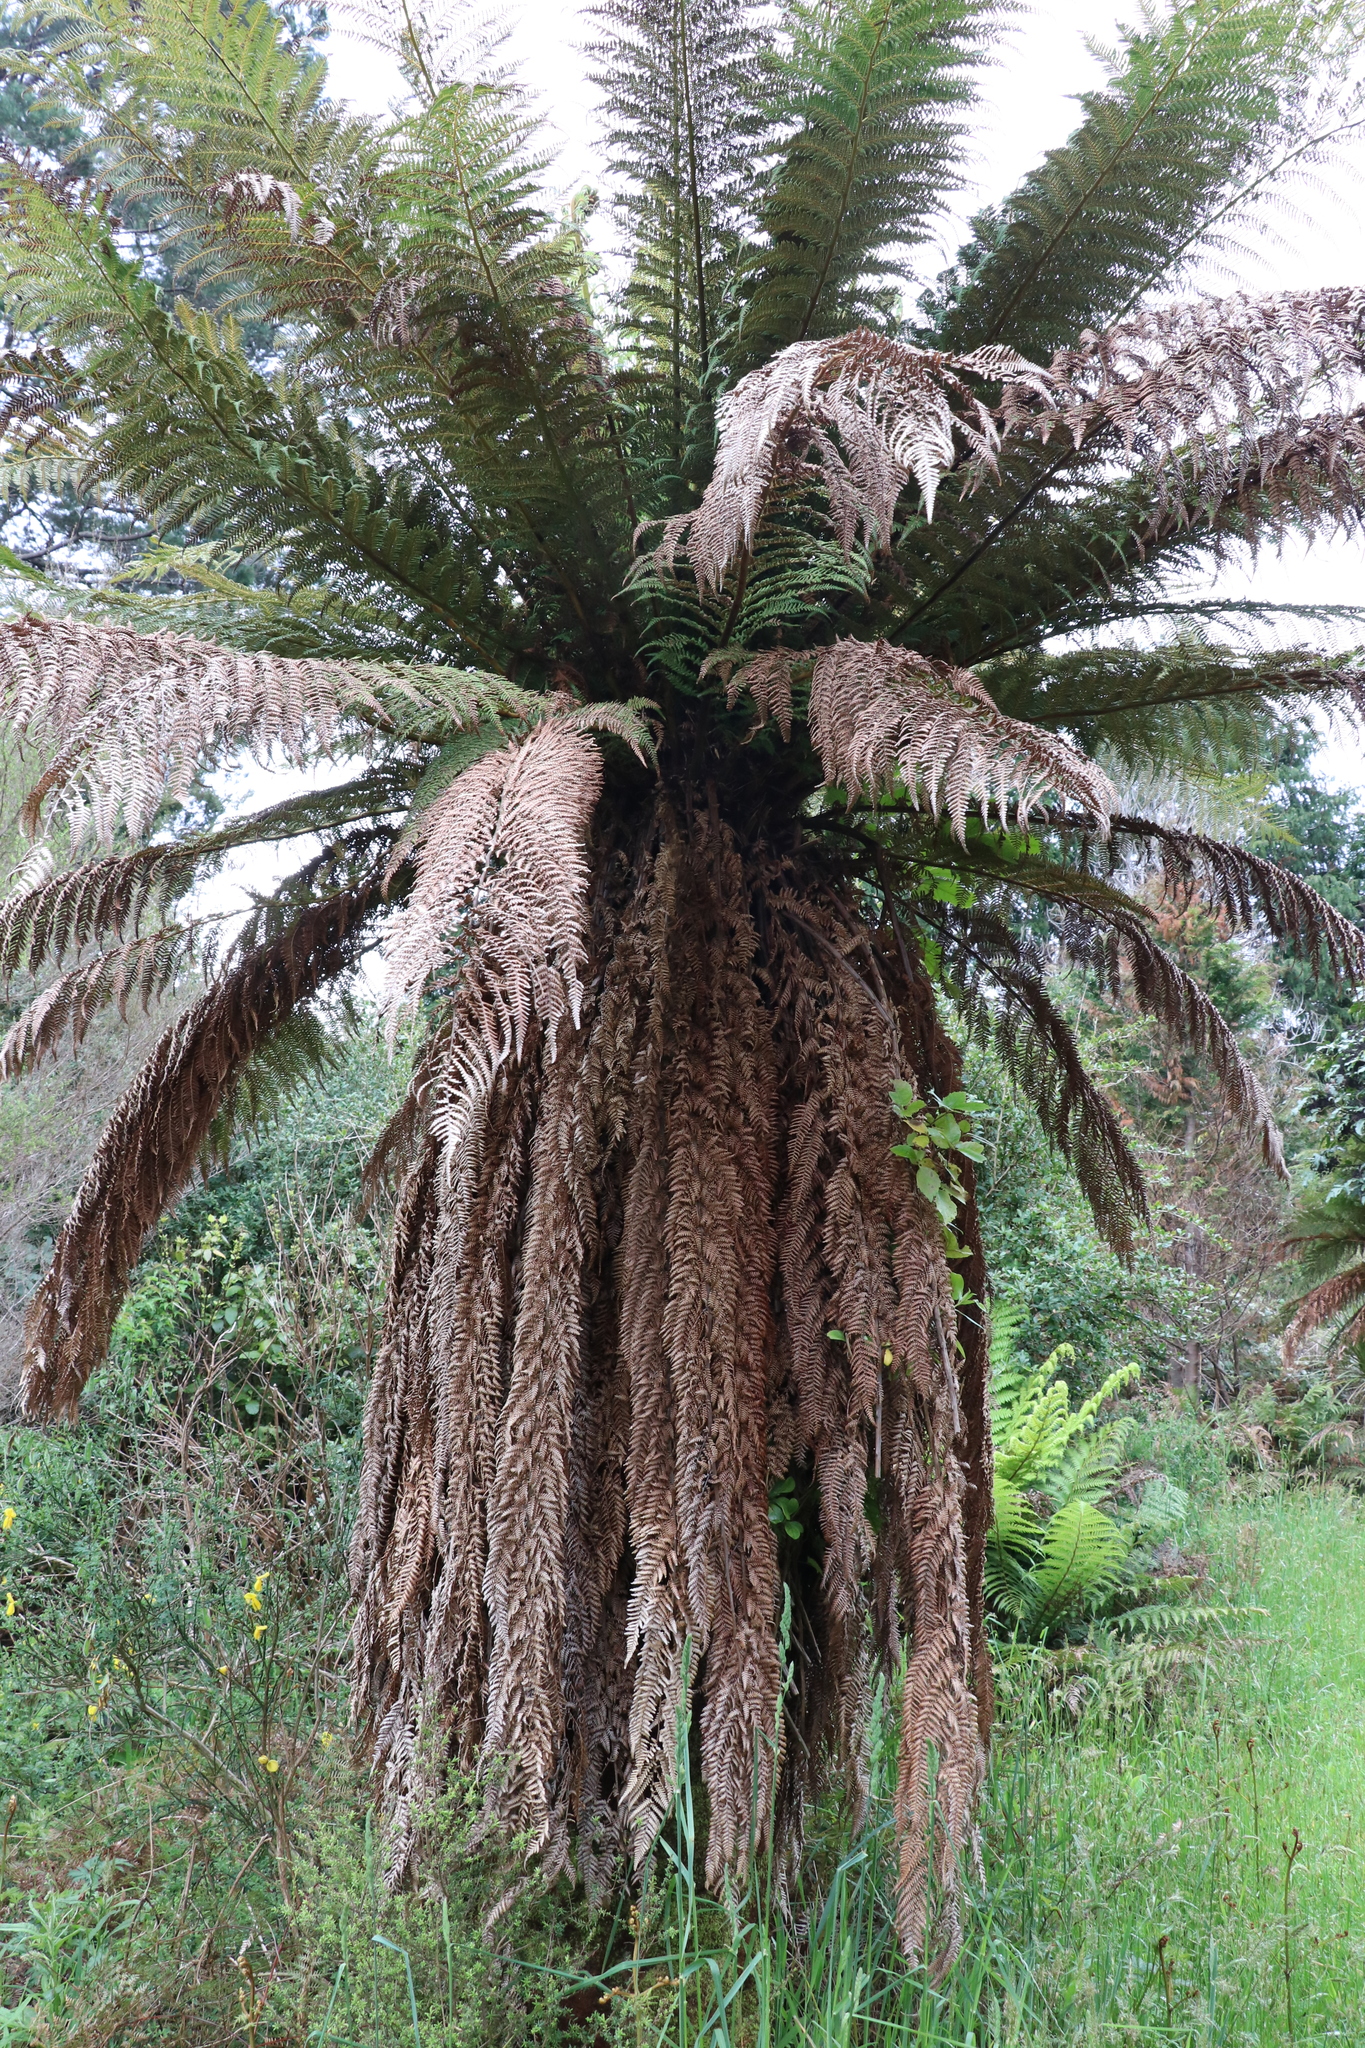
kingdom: Plantae
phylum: Tracheophyta
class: Polypodiopsida
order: Cyatheales
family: Dicksoniaceae
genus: Dicksonia
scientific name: Dicksonia fibrosa
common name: Golden tree fern
